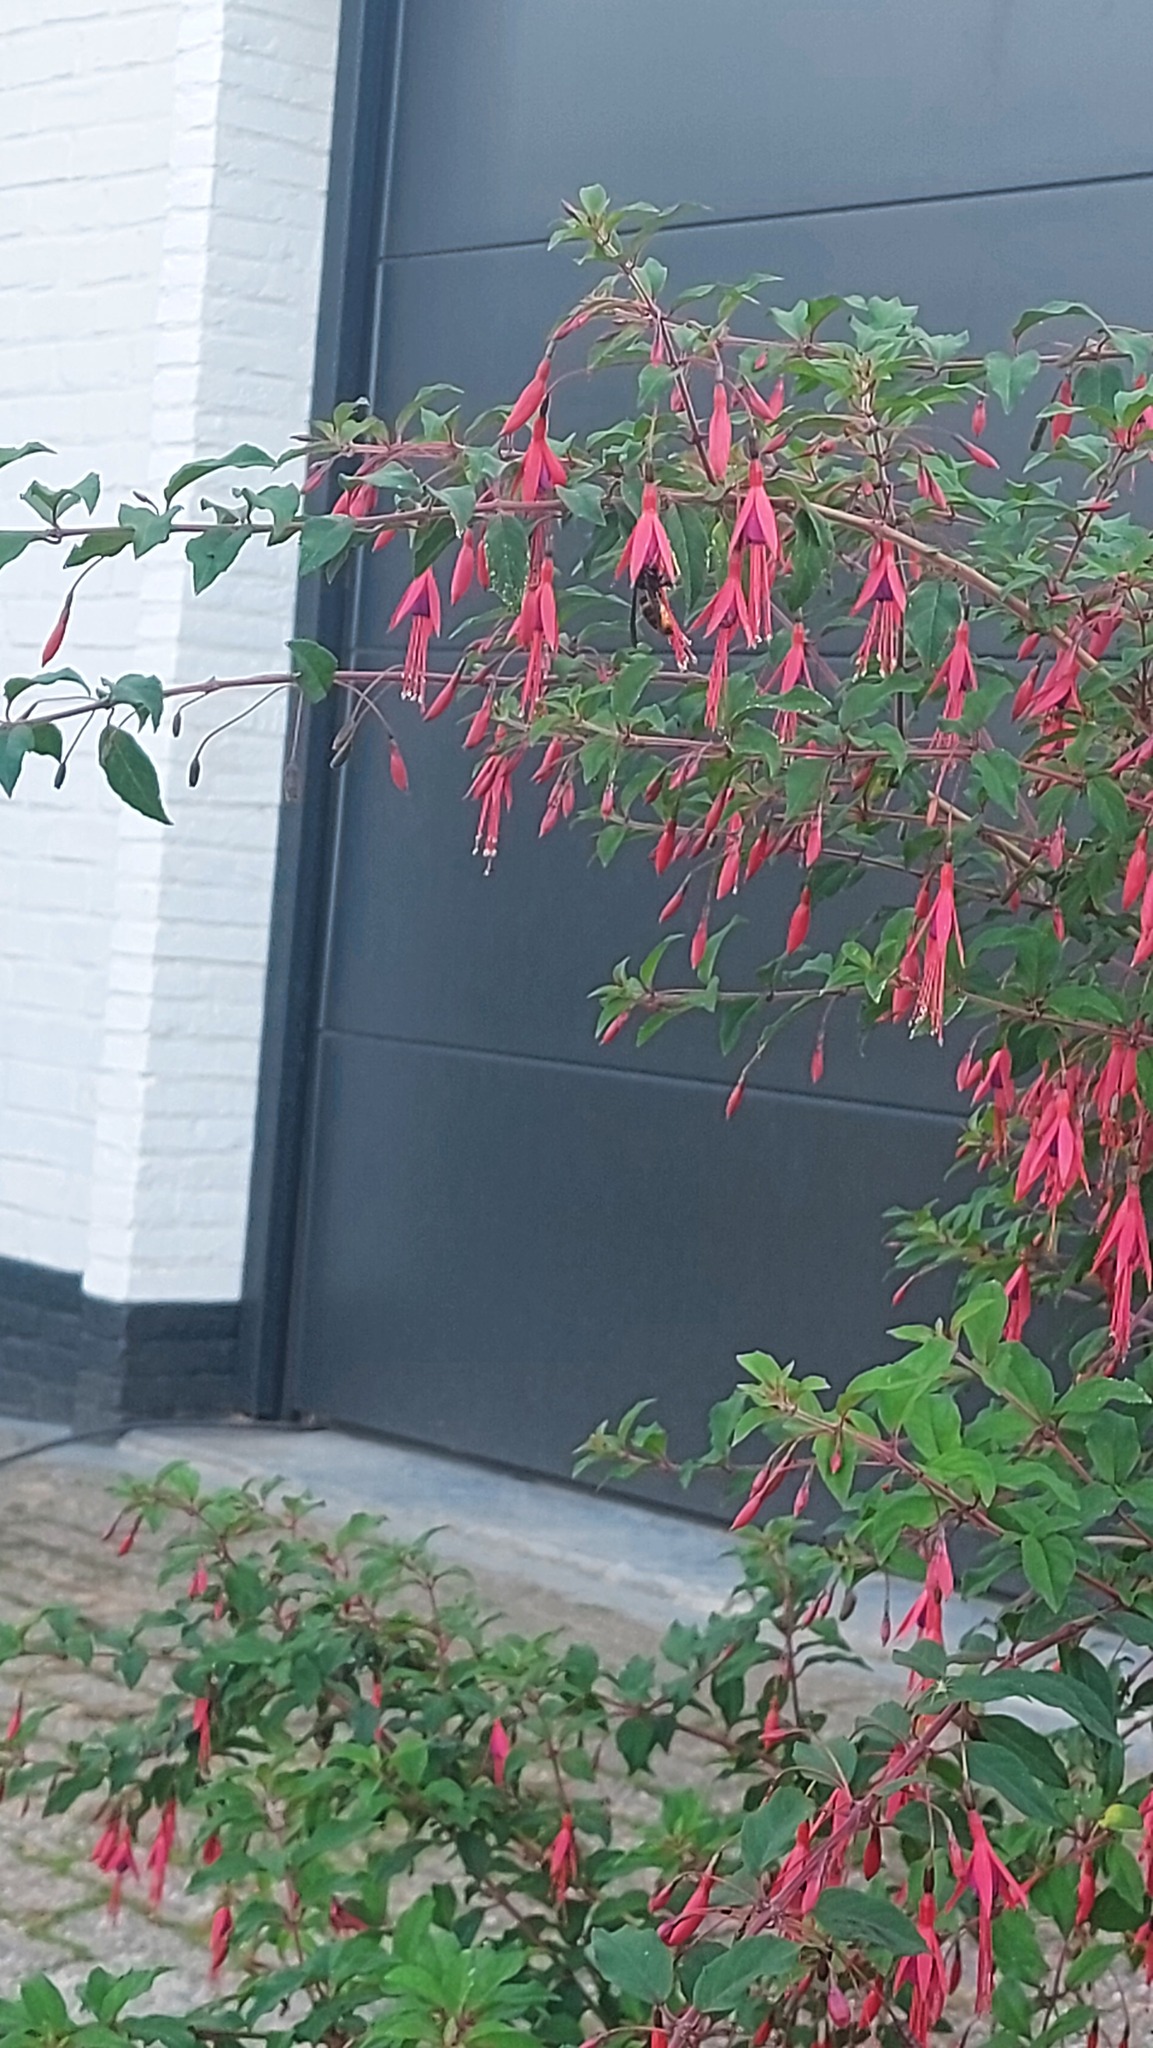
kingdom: Animalia
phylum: Arthropoda
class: Insecta
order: Hymenoptera
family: Vespidae
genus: Vespa
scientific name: Vespa velutina
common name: Asian hornet
